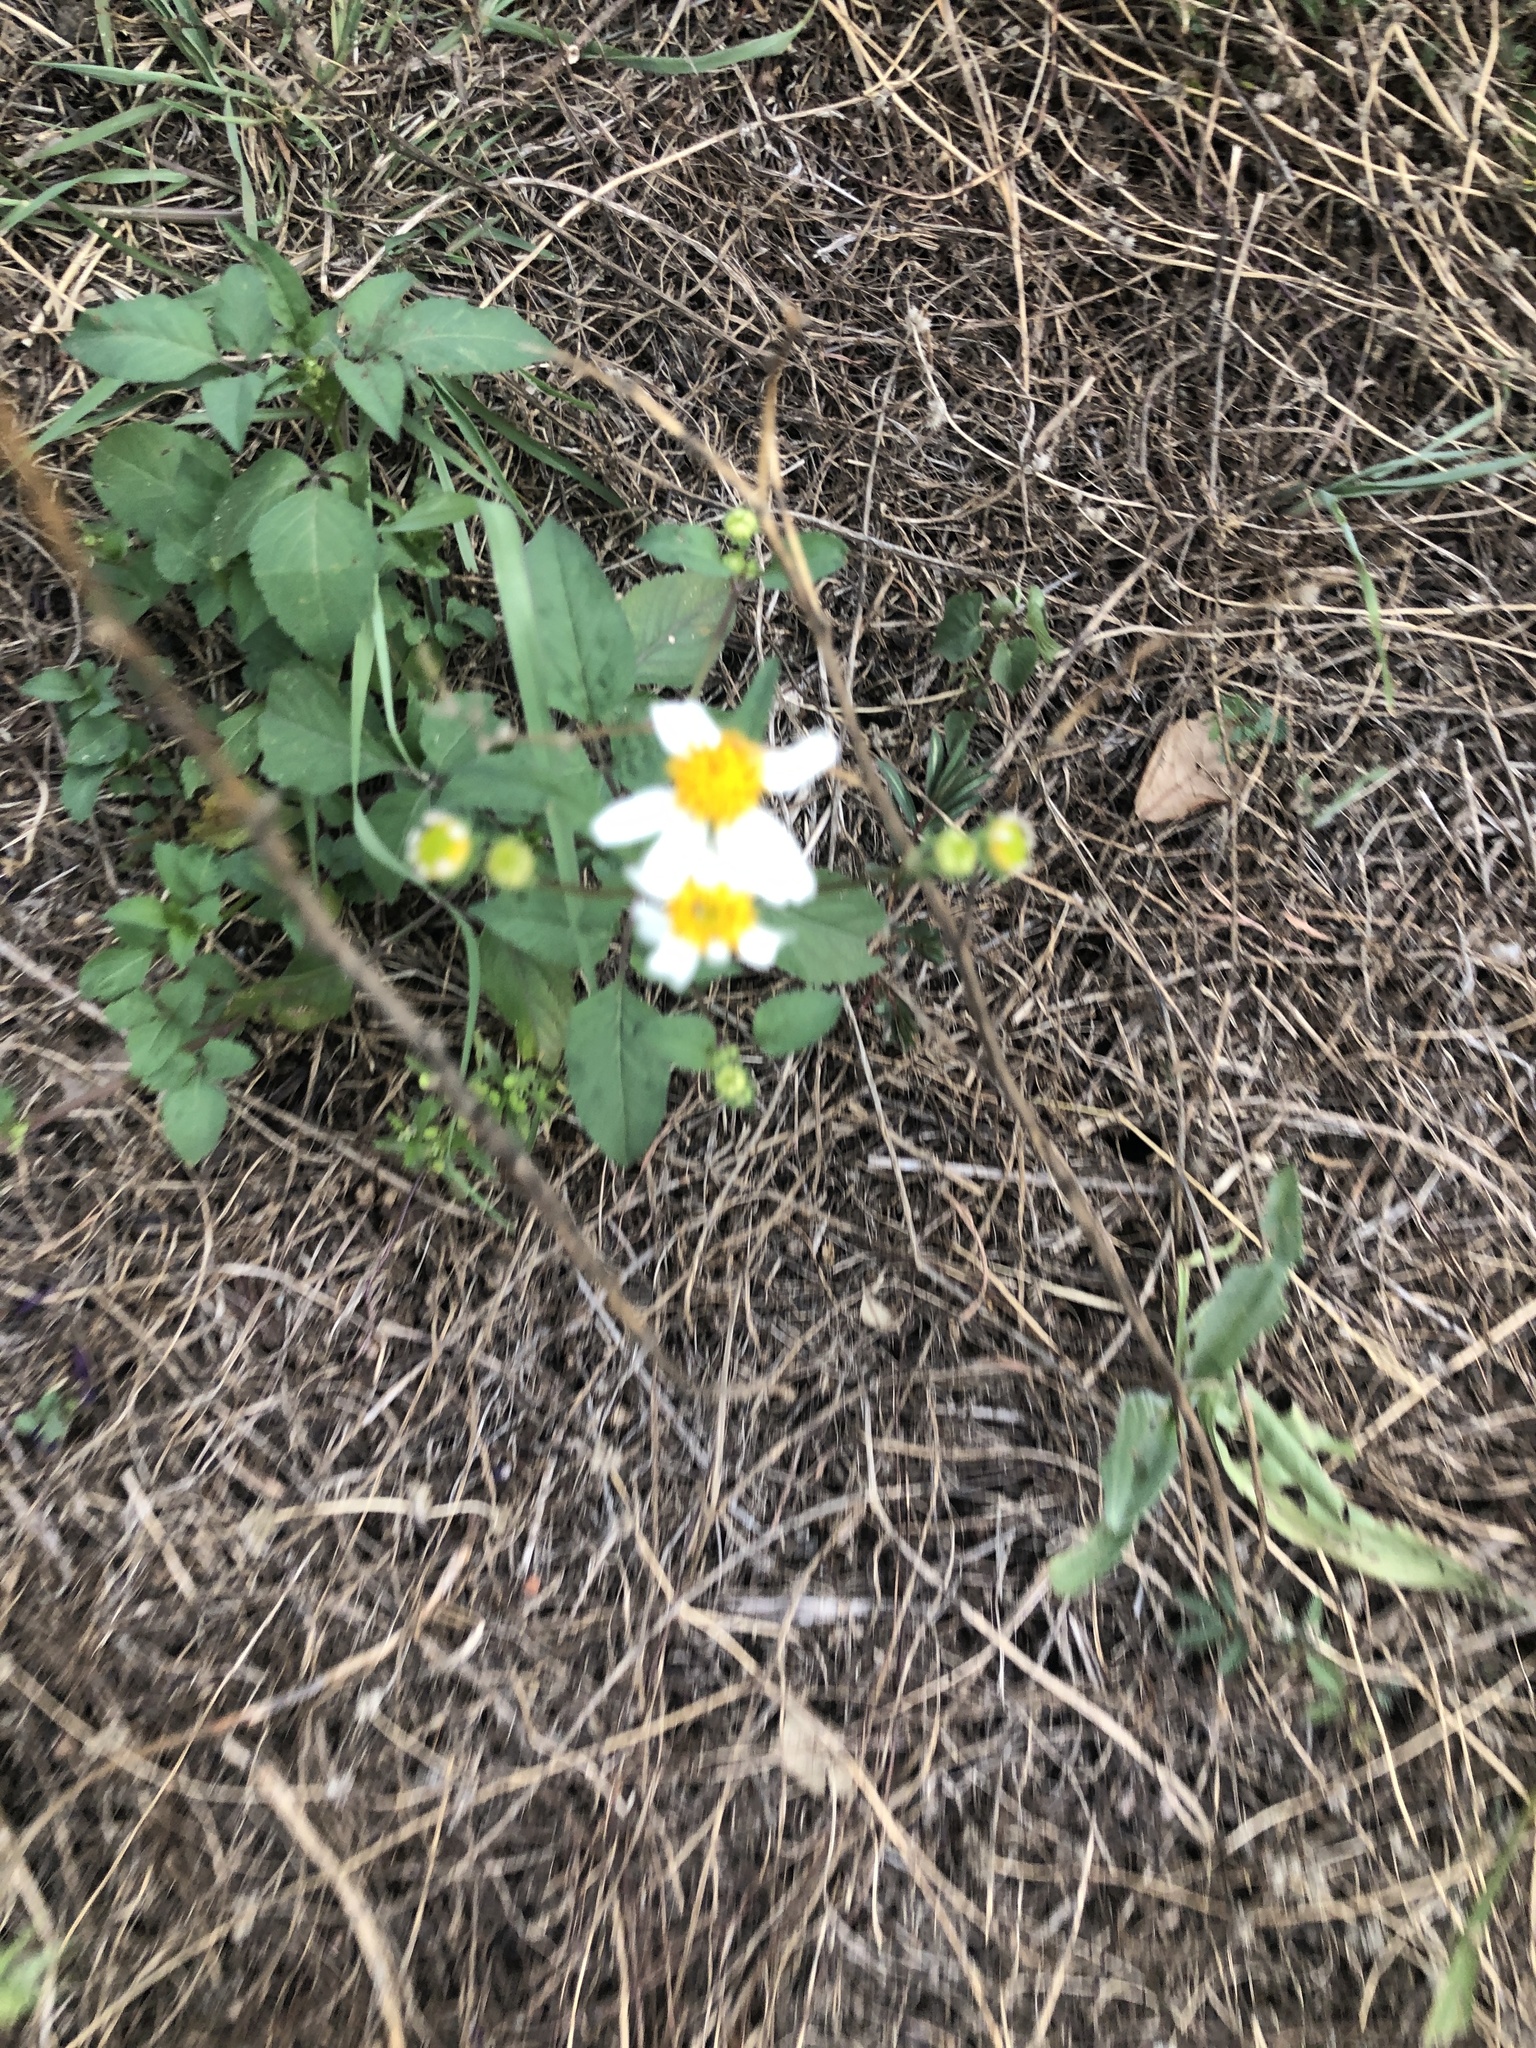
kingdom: Plantae
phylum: Tracheophyta
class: Magnoliopsida
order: Asterales
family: Asteraceae
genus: Bidens
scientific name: Bidens alba
